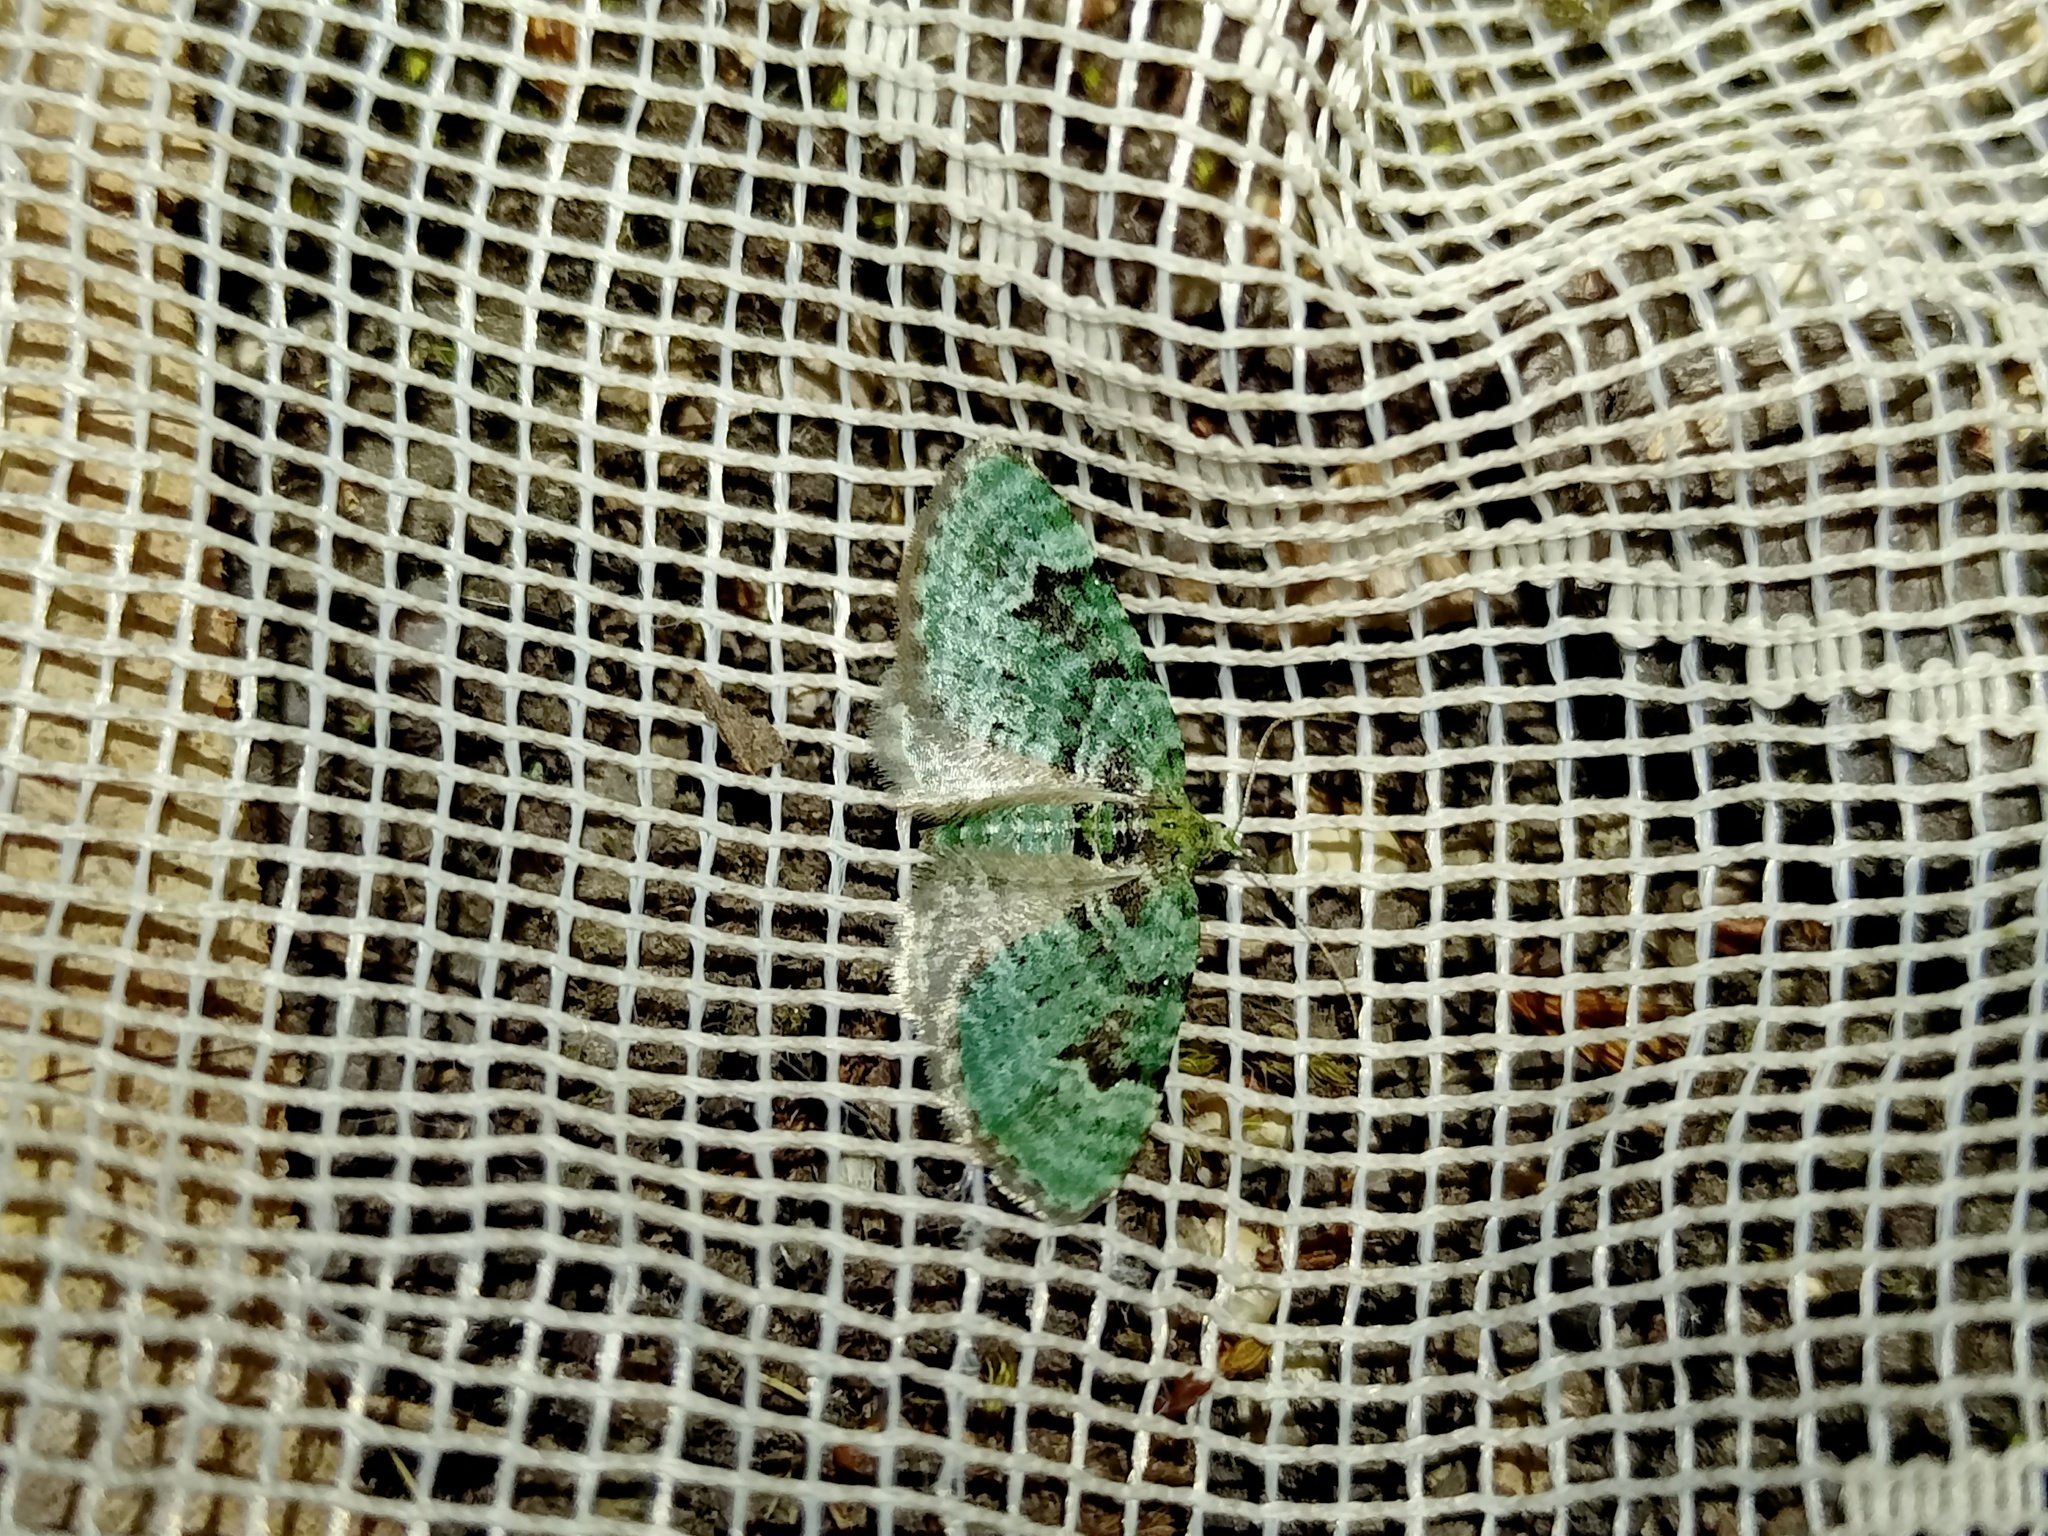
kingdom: Animalia
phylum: Arthropoda
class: Insecta
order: Lepidoptera
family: Geometridae
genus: Chloroclystis
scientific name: Chloroclystis v-ata
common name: V-pug
